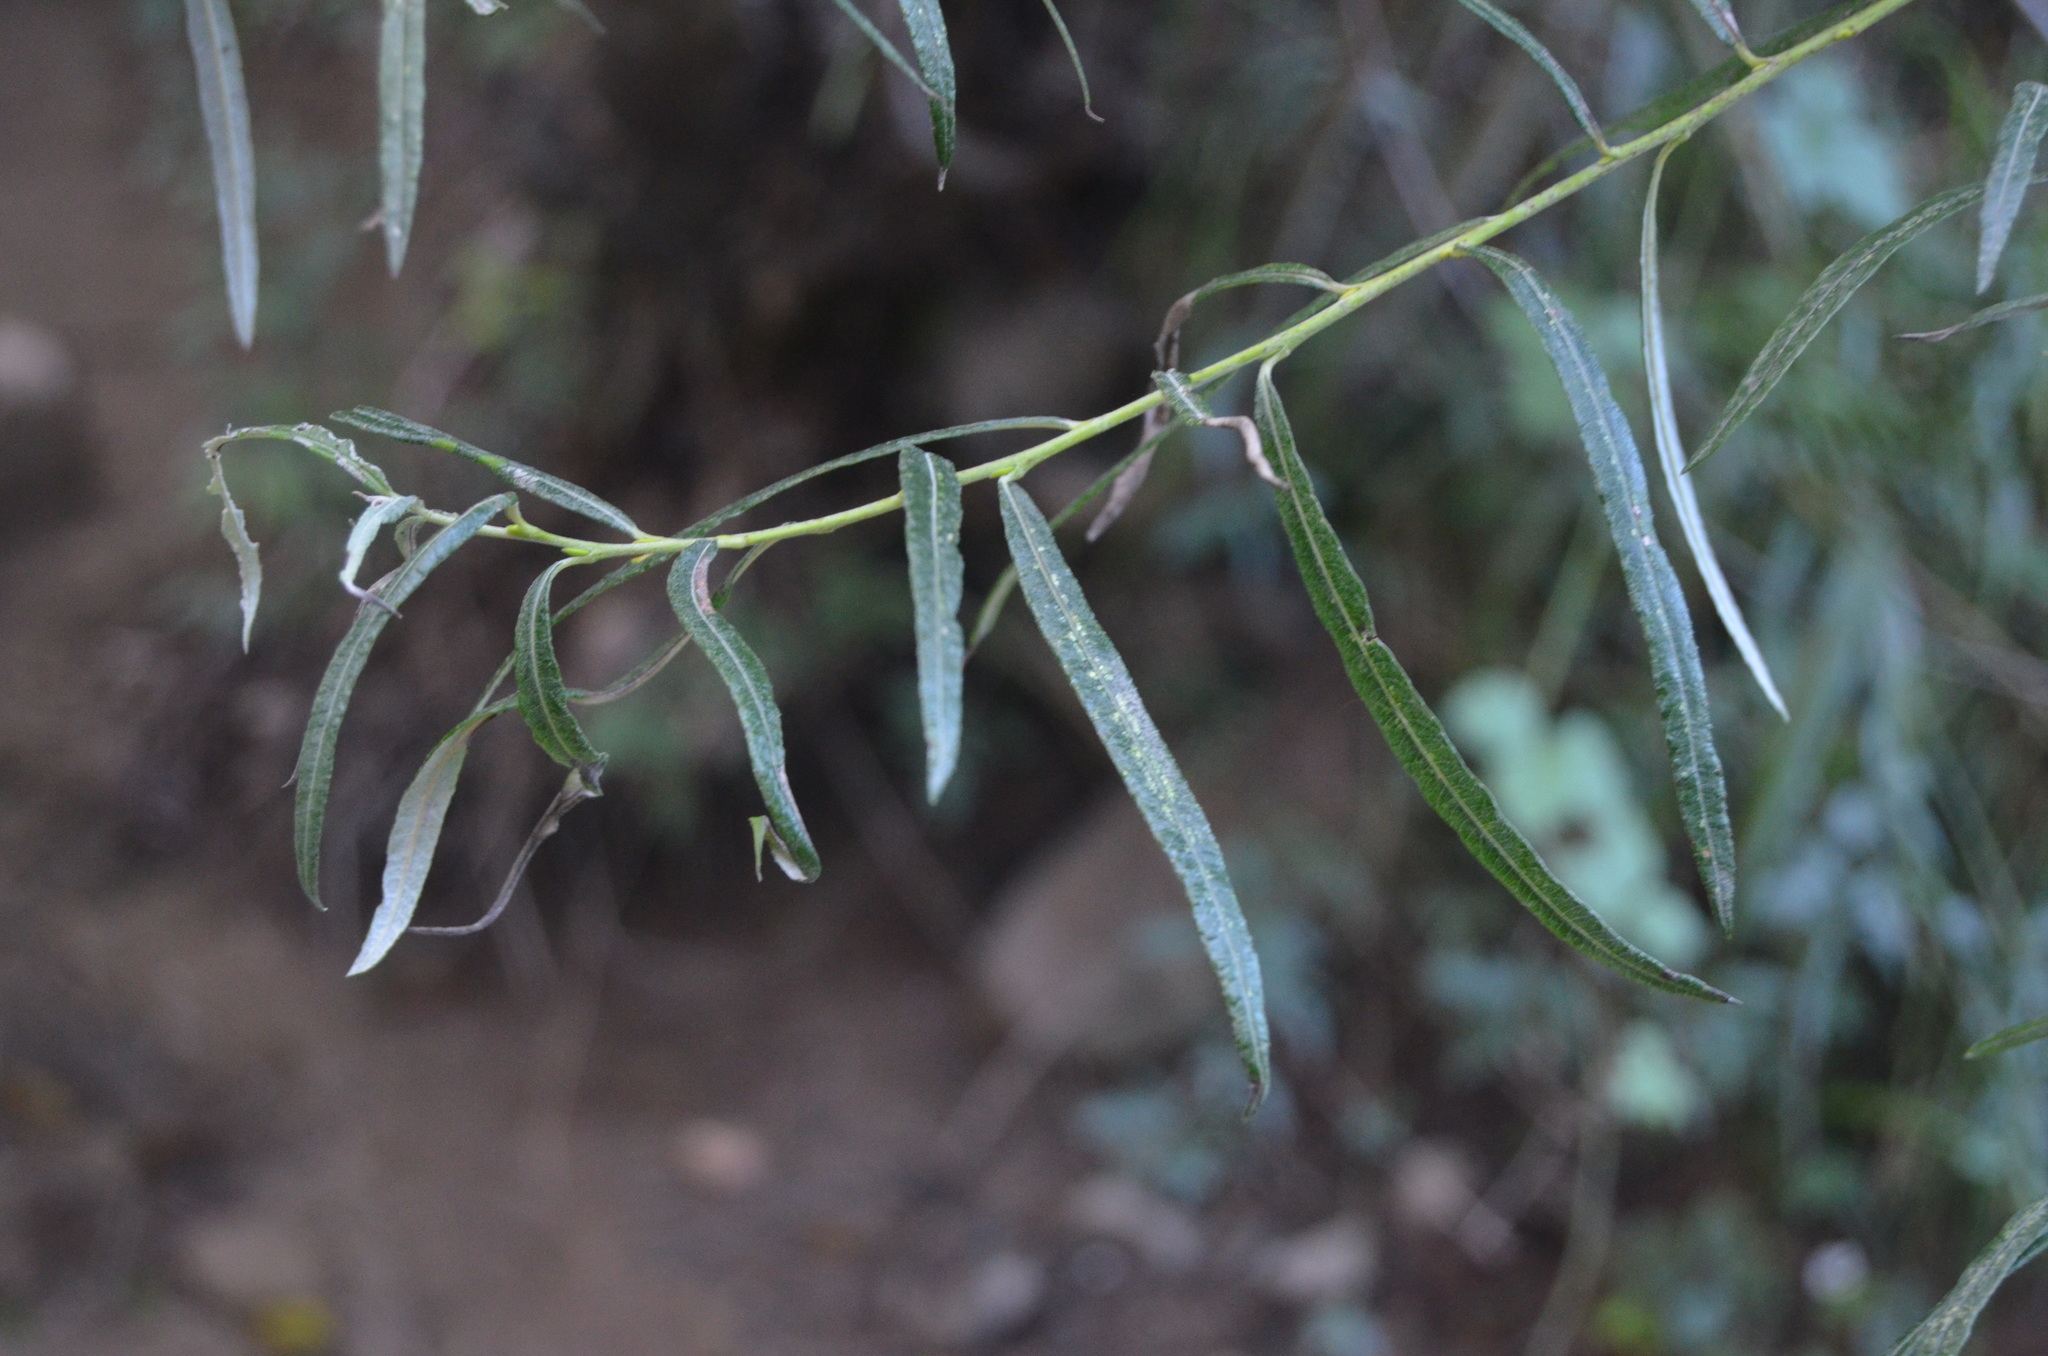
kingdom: Plantae
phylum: Tracheophyta
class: Magnoliopsida
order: Malpighiales
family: Salicaceae
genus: Salix
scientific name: Salix eleagnos
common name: Elaeagnus willow
